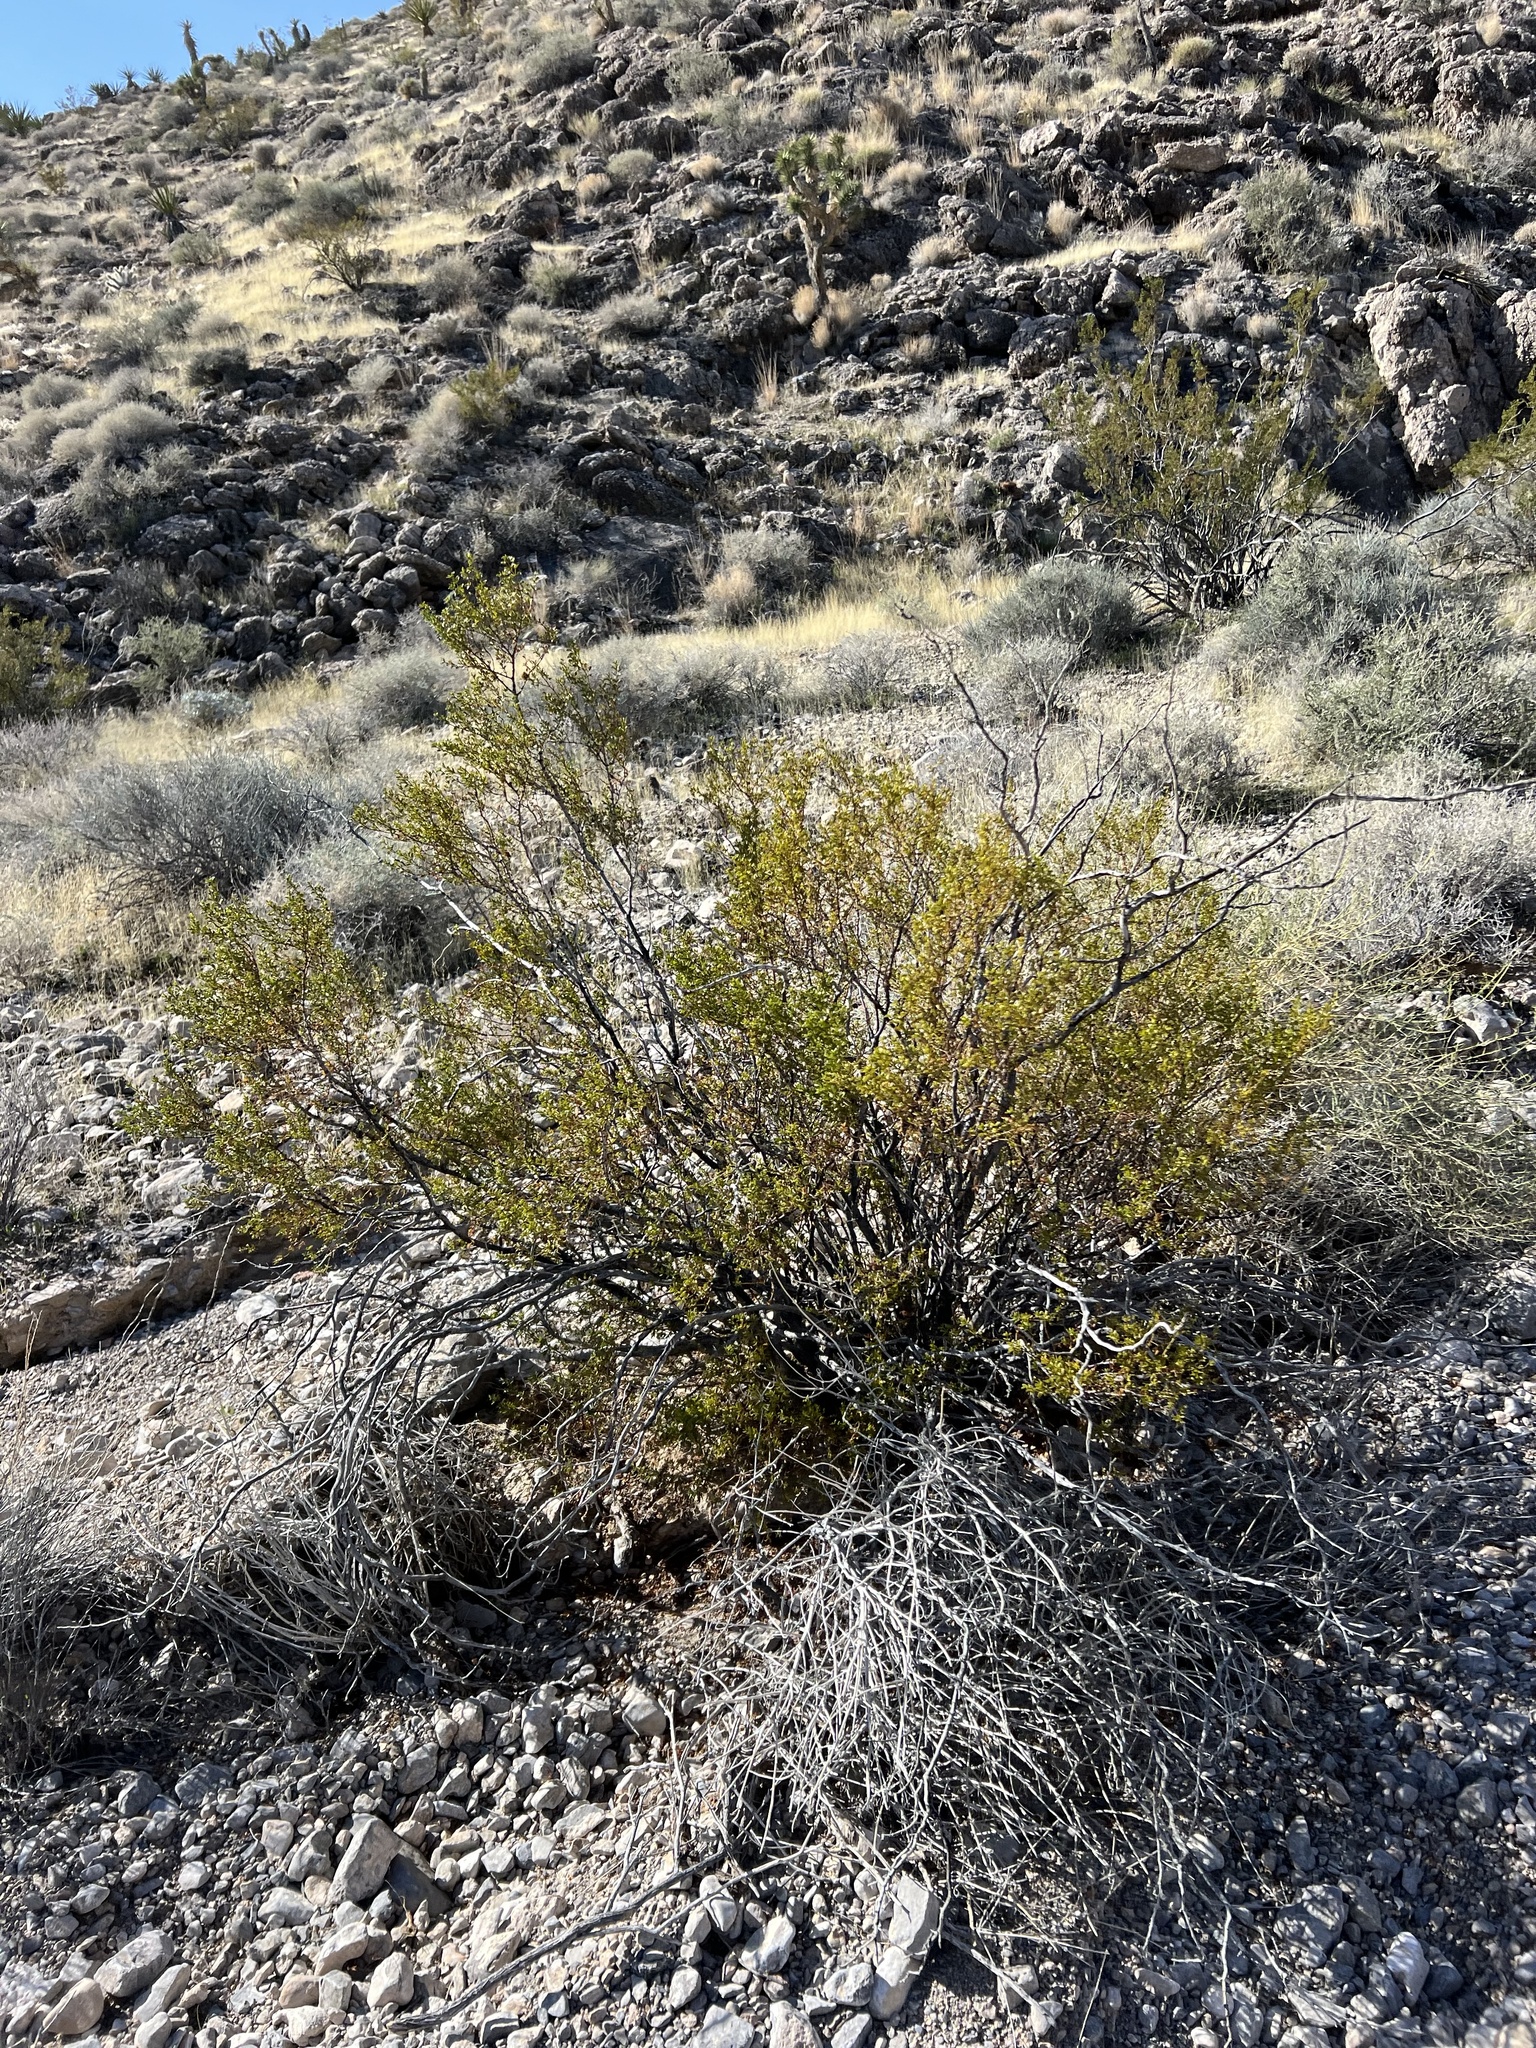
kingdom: Plantae
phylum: Tracheophyta
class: Magnoliopsida
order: Zygophyllales
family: Zygophyllaceae
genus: Larrea
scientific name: Larrea tridentata
